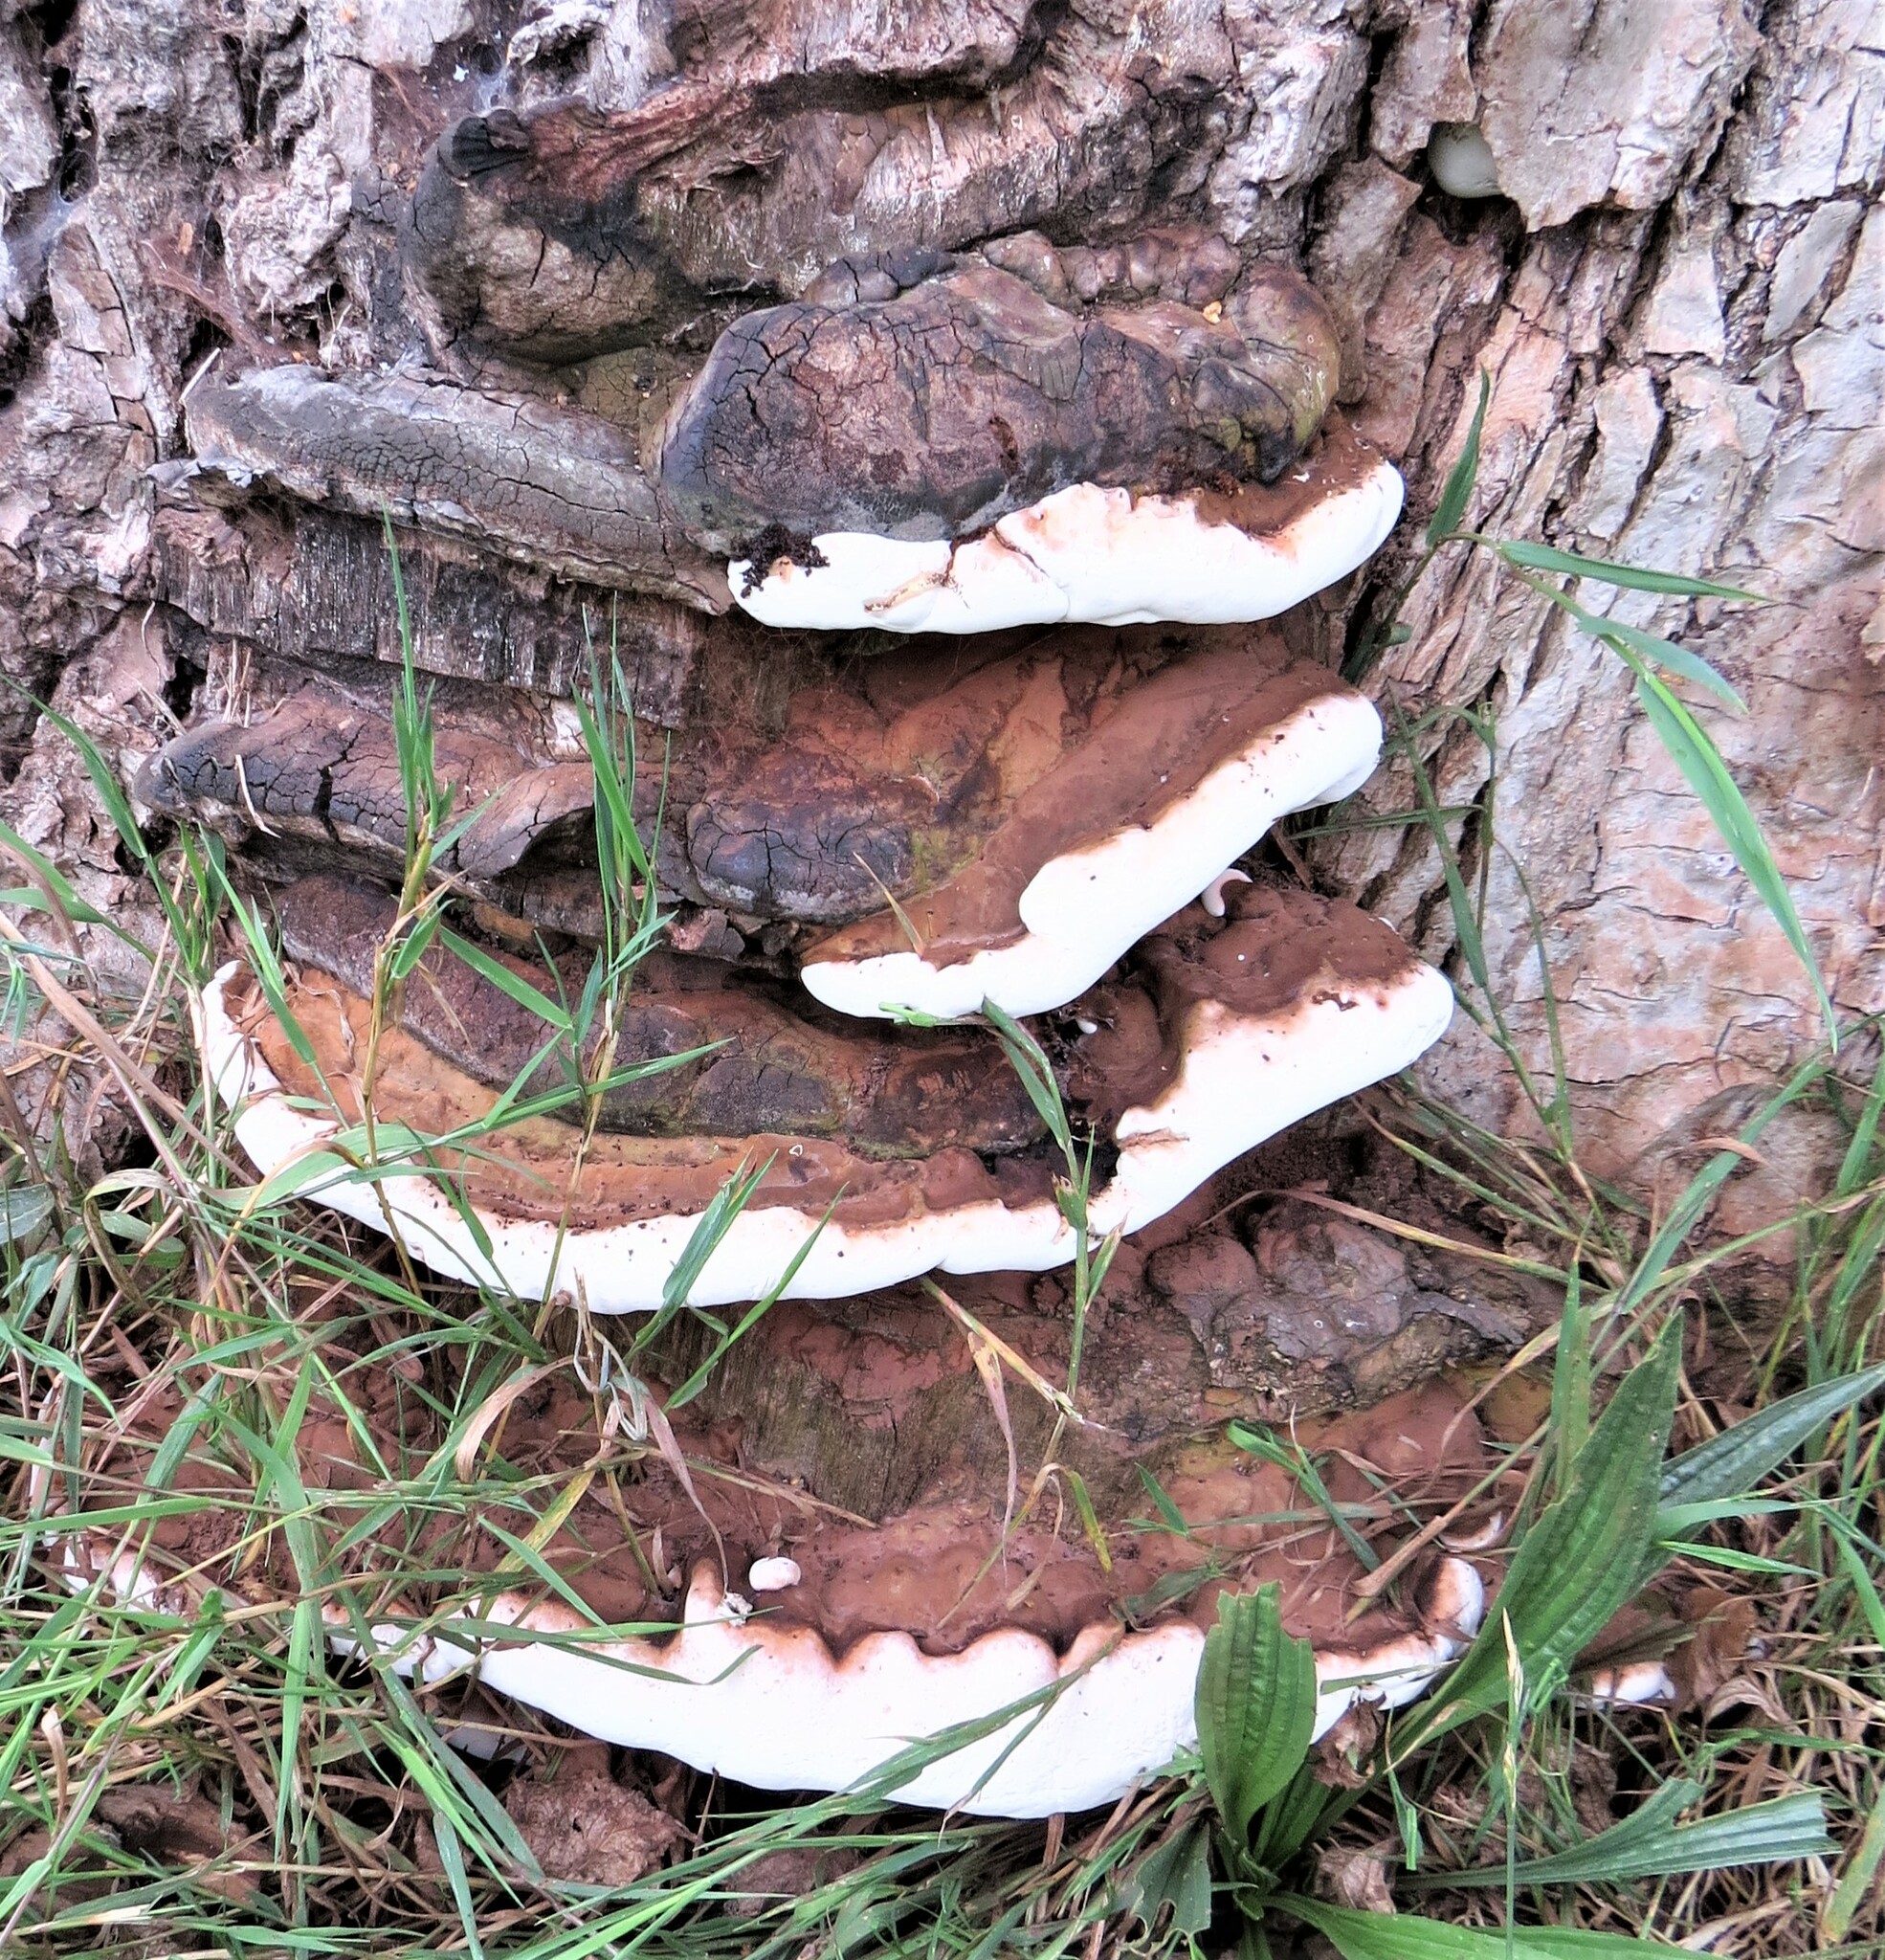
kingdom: Fungi
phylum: Basidiomycota
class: Agaricomycetes
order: Polyporales
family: Polyporaceae
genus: Ganoderma
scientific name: Ganoderma resinaceum
